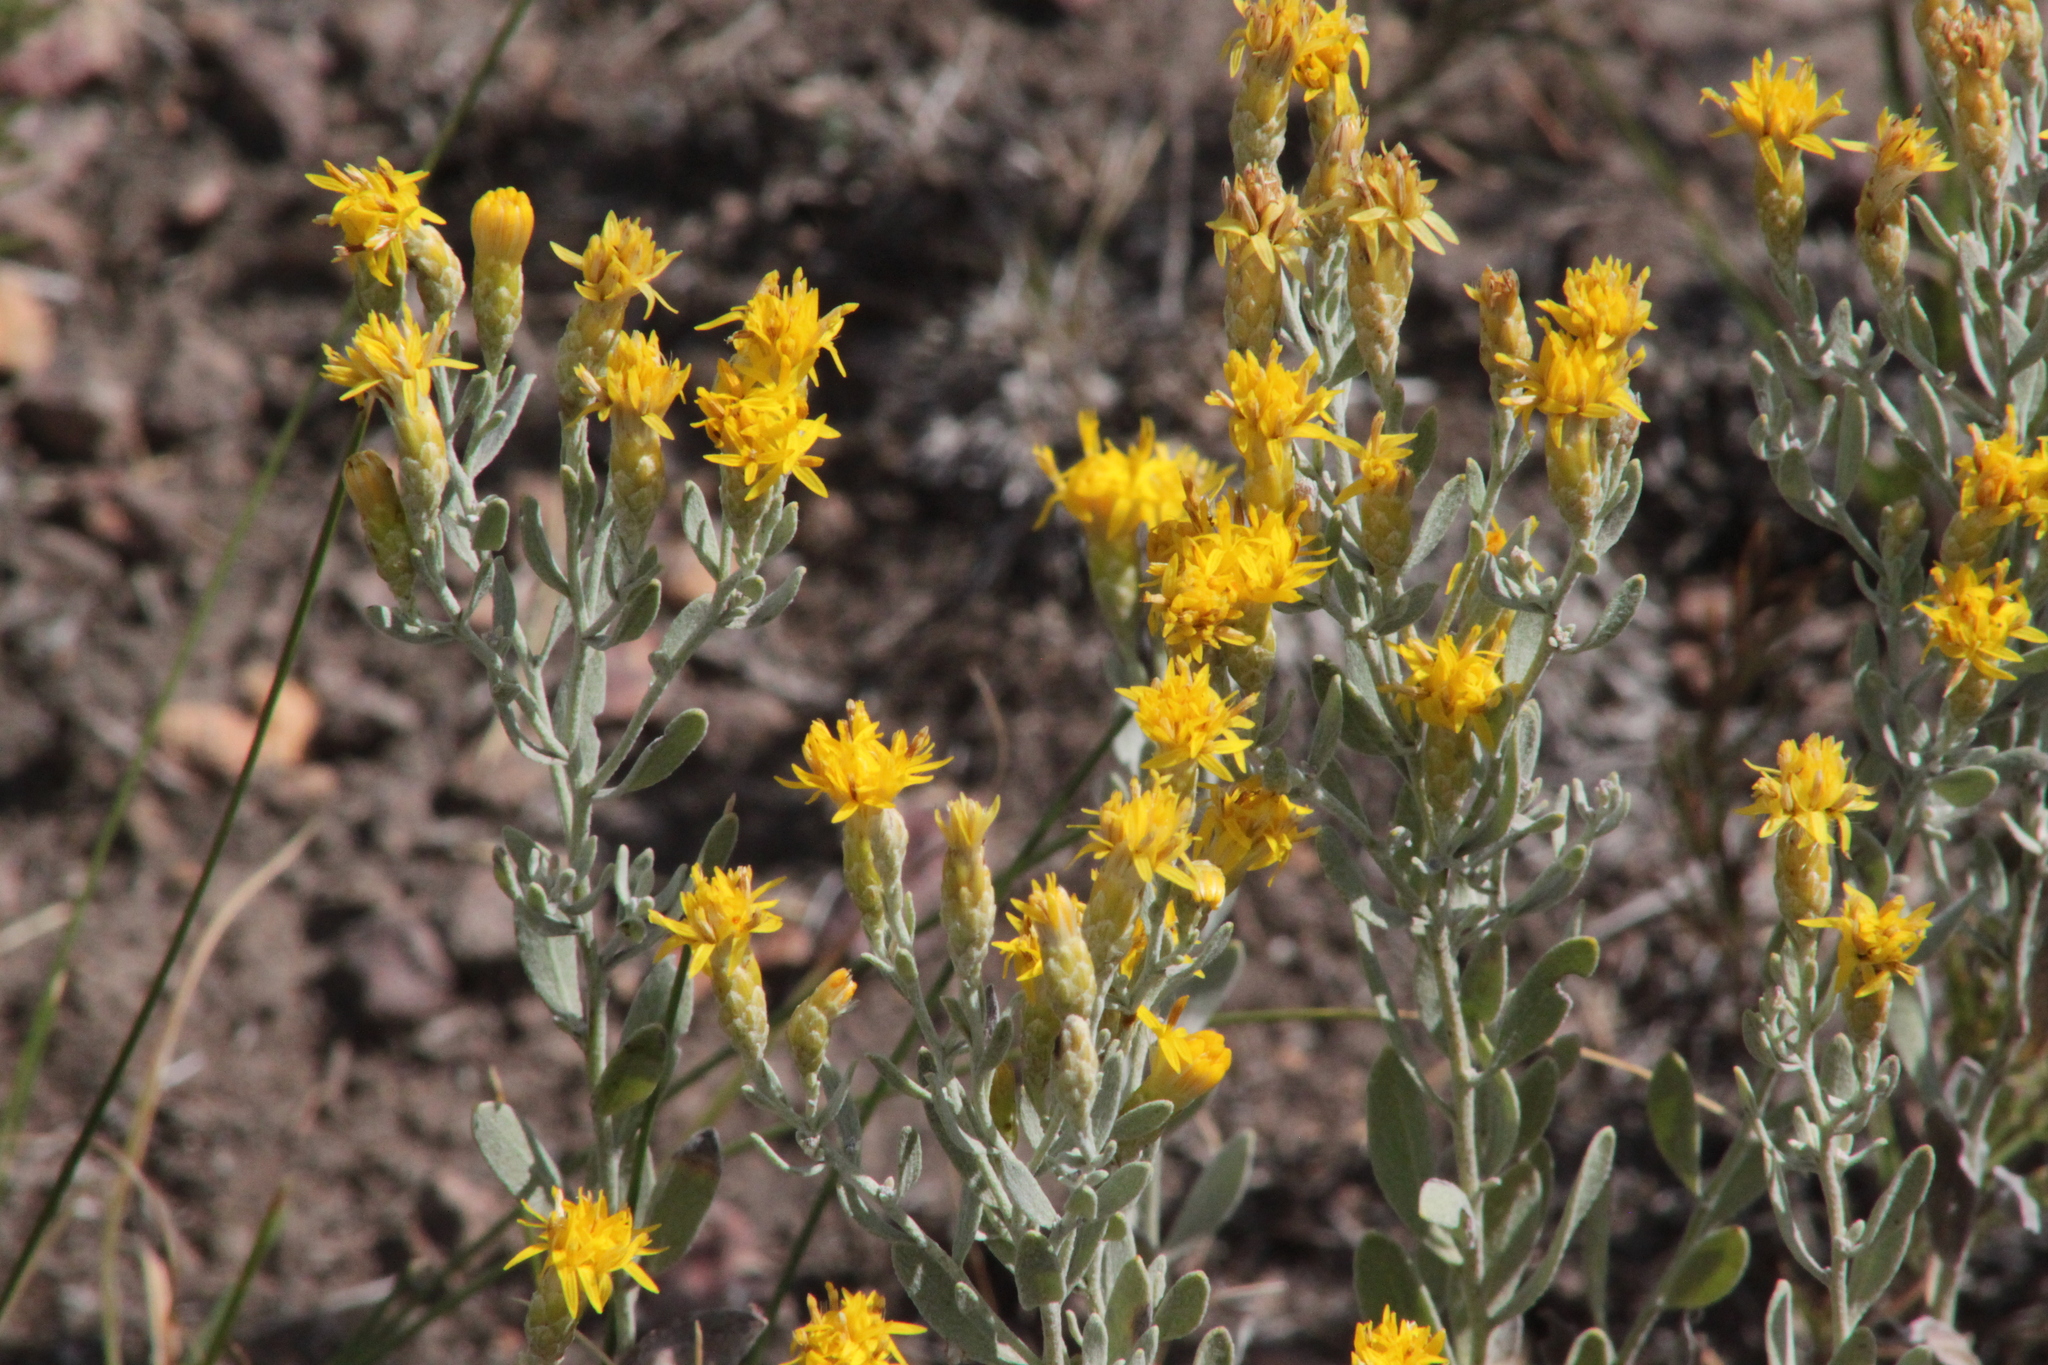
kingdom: Plantae
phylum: Tracheophyta
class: Magnoliopsida
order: Asterales
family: Asteraceae
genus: Galatella
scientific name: Galatella villosa
